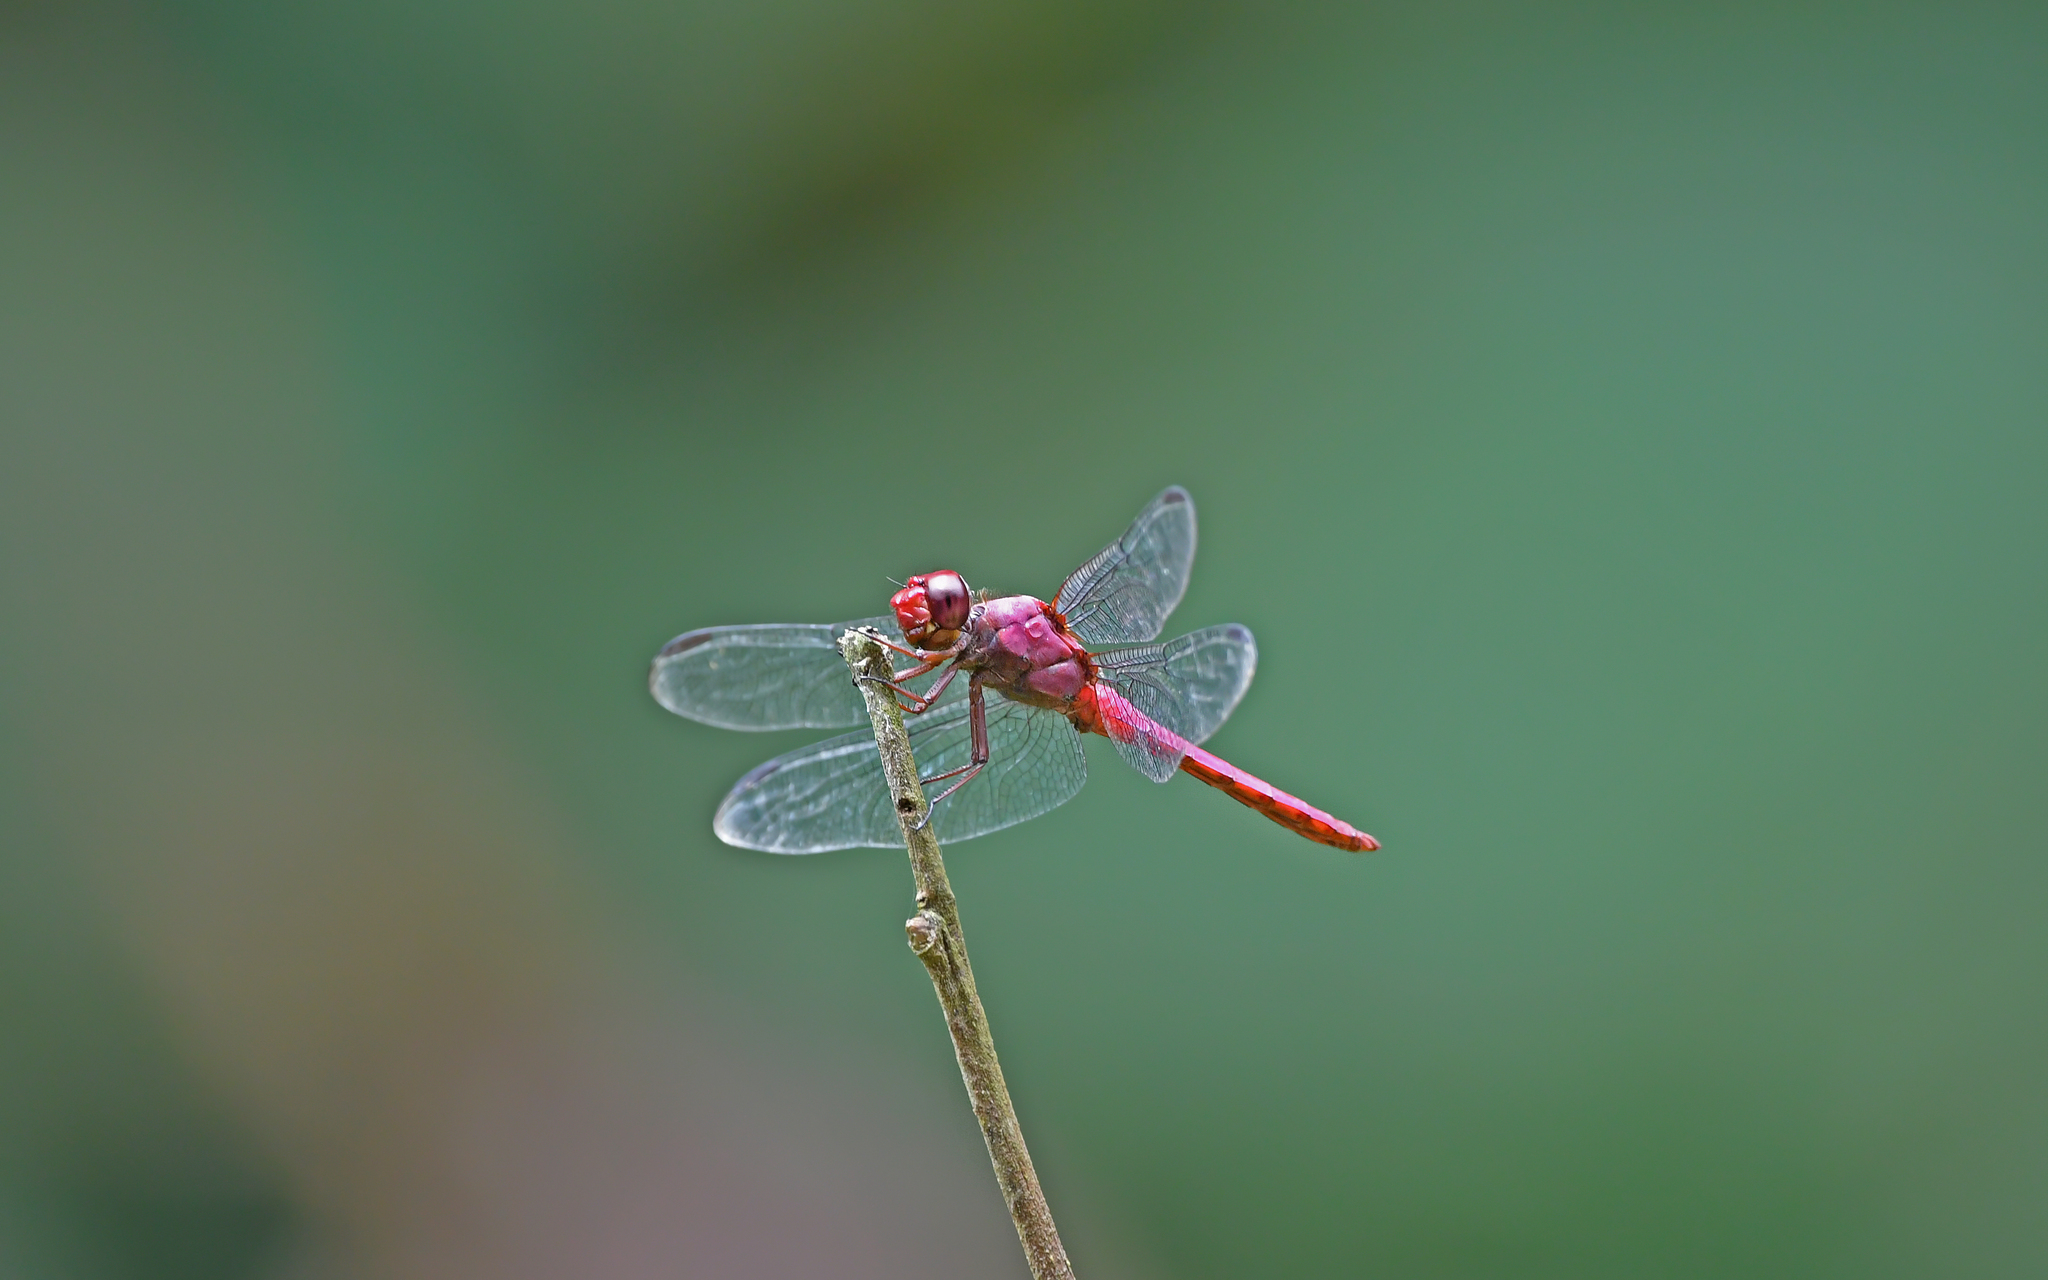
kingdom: Animalia
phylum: Arthropoda
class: Insecta
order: Odonata
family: Libellulidae
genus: Orthemis
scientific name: Orthemis discolor
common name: Carmine skimmer
